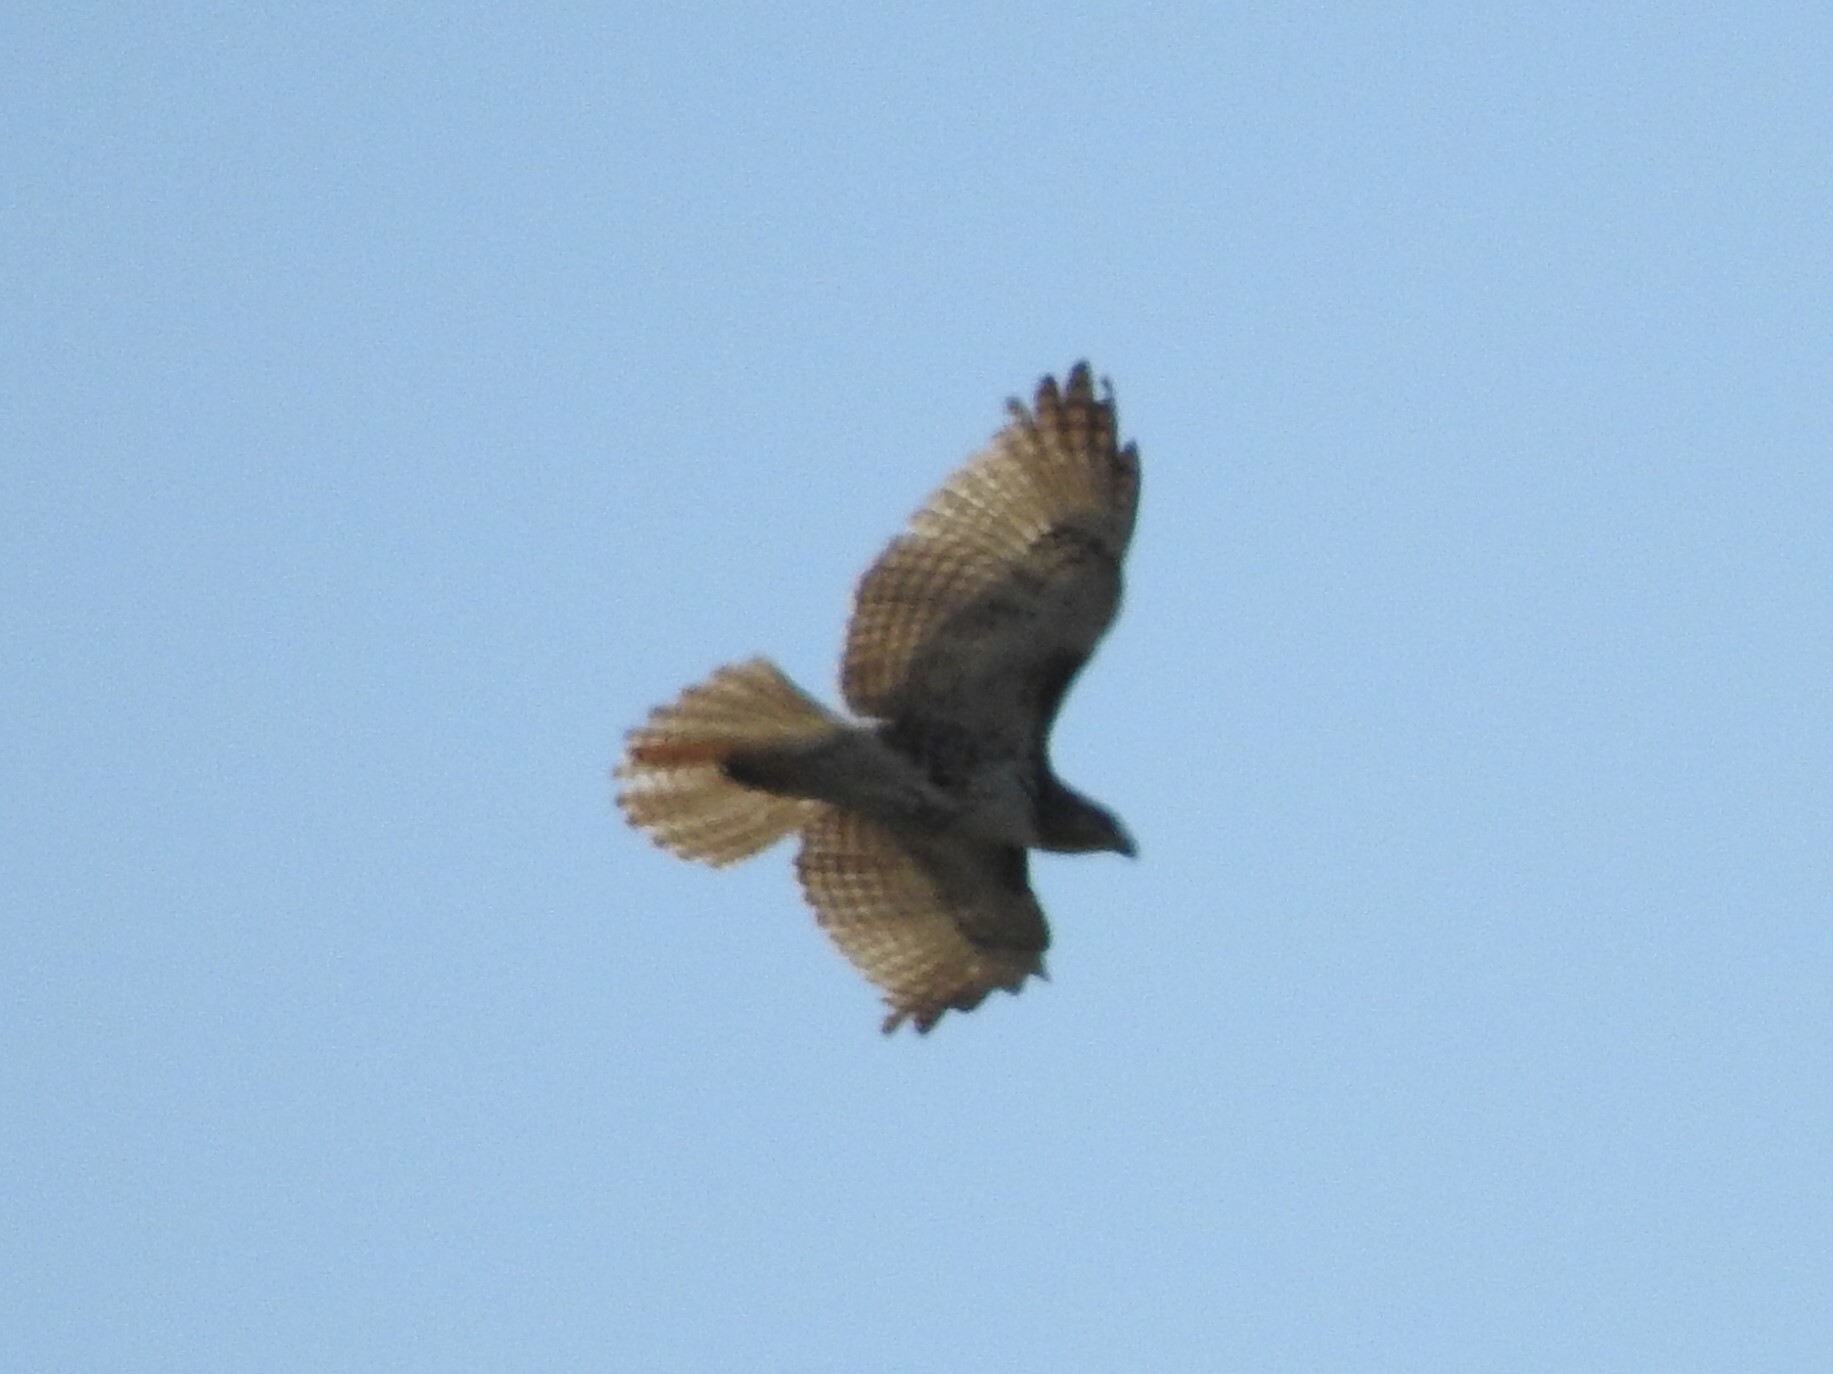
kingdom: Animalia
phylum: Chordata
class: Aves
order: Accipitriformes
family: Accipitridae
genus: Buteo
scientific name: Buteo jamaicensis
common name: Red-tailed hawk
